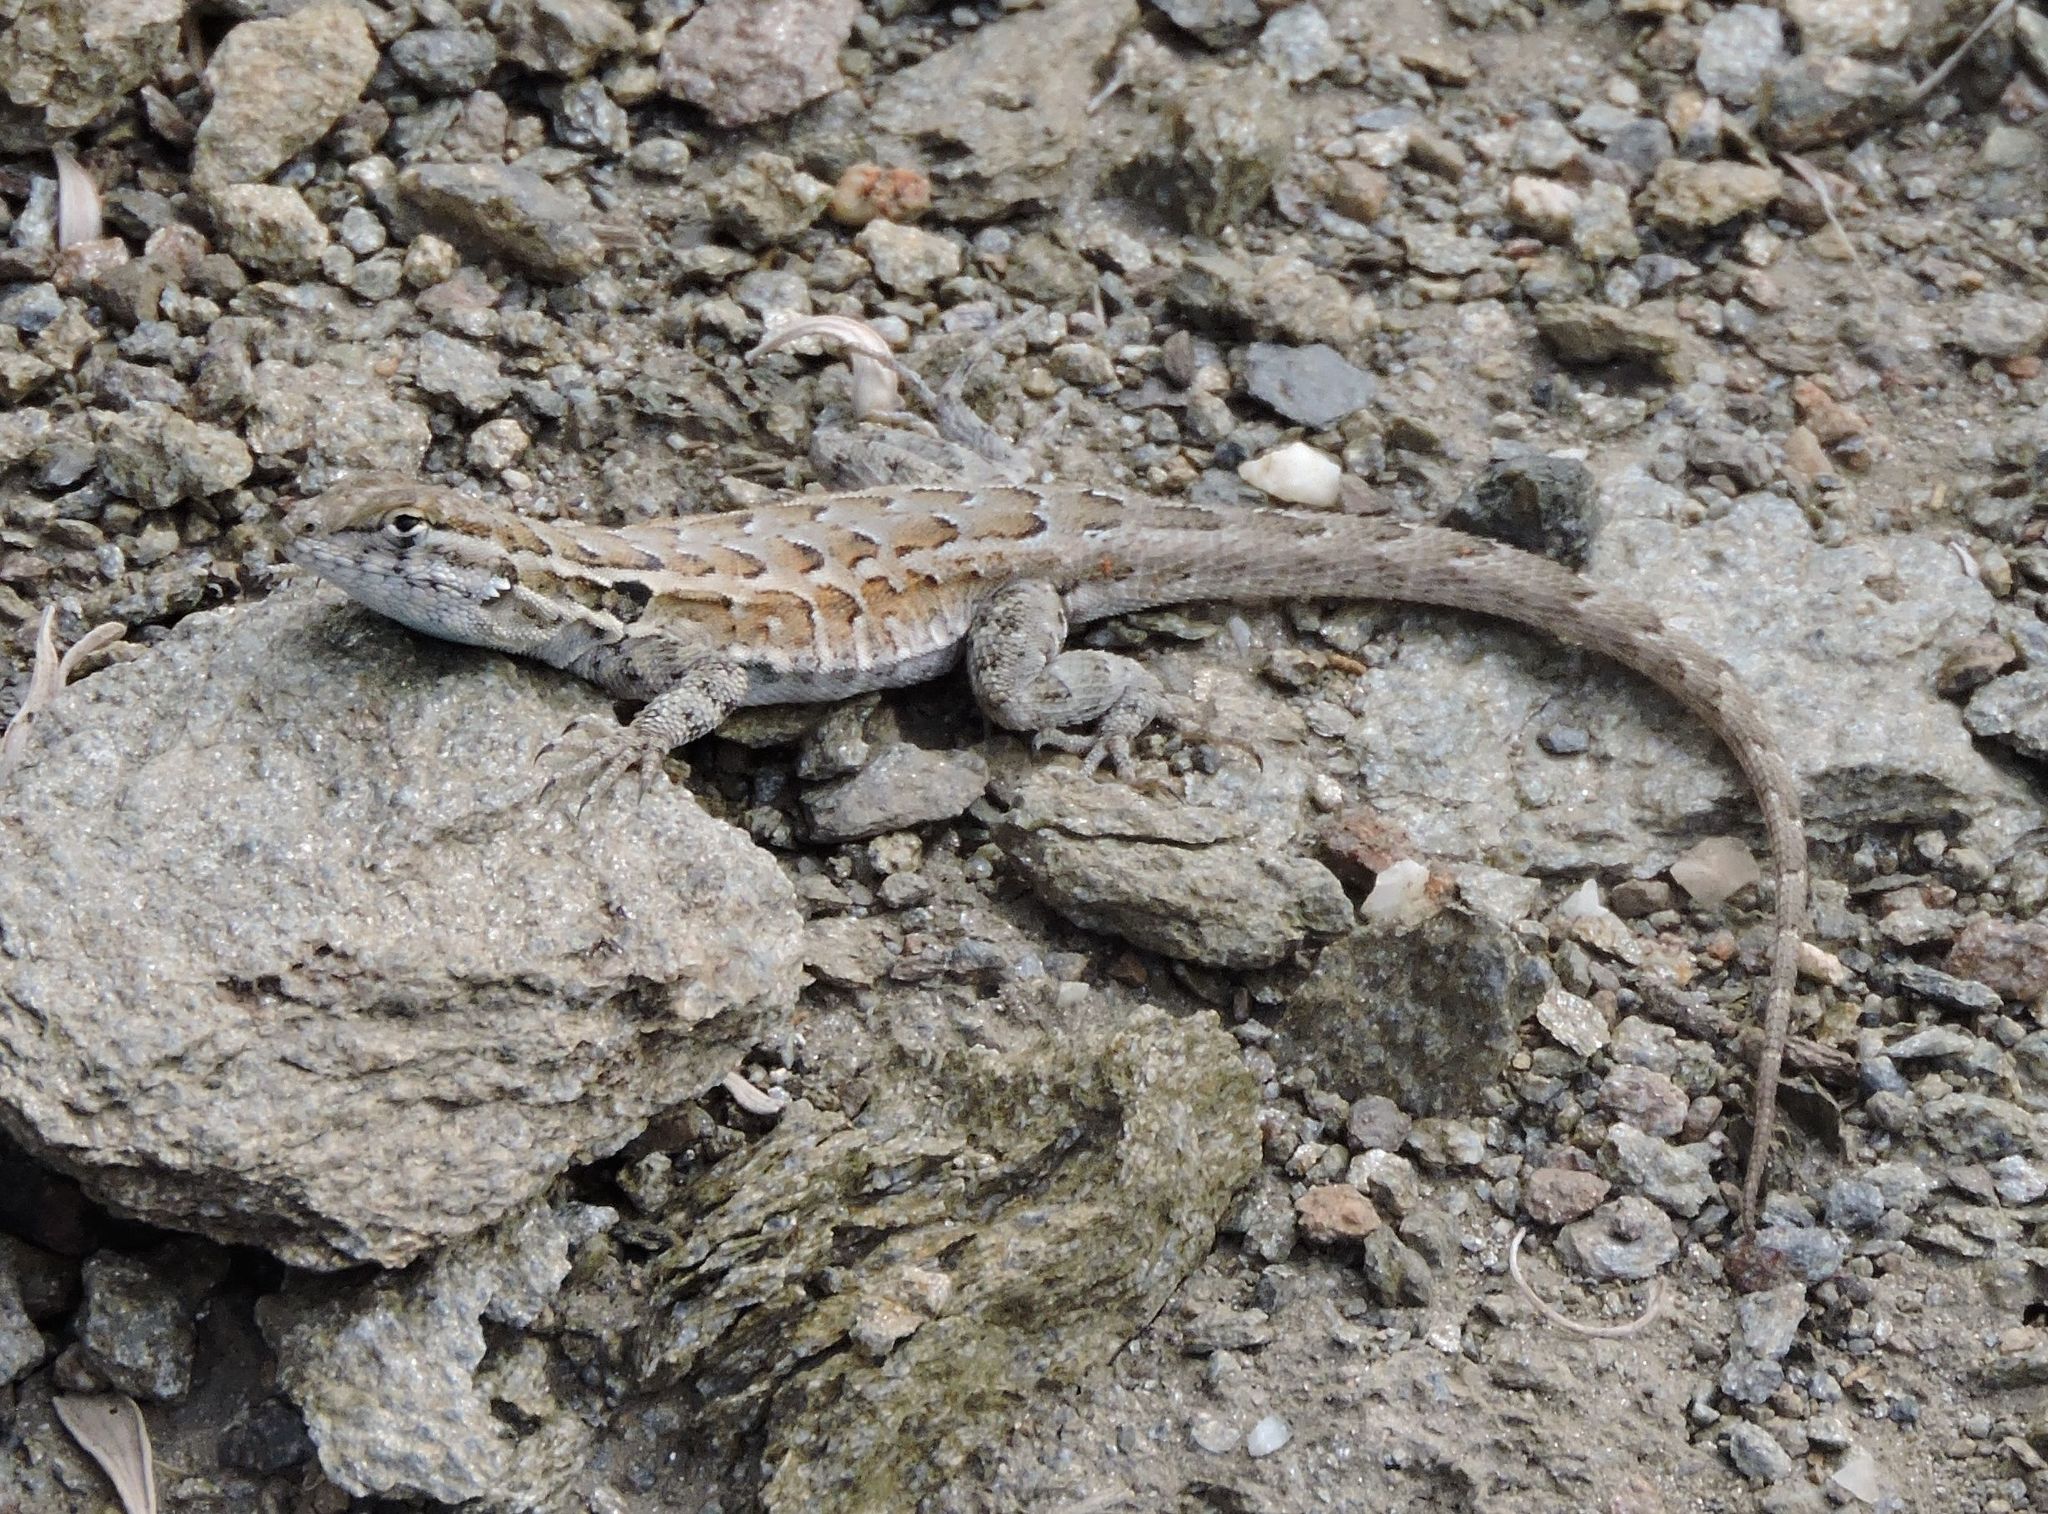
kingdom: Animalia
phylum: Chordata
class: Squamata
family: Phrynosomatidae
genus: Uta
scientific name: Uta stansburiana
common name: Side-blotched lizard
